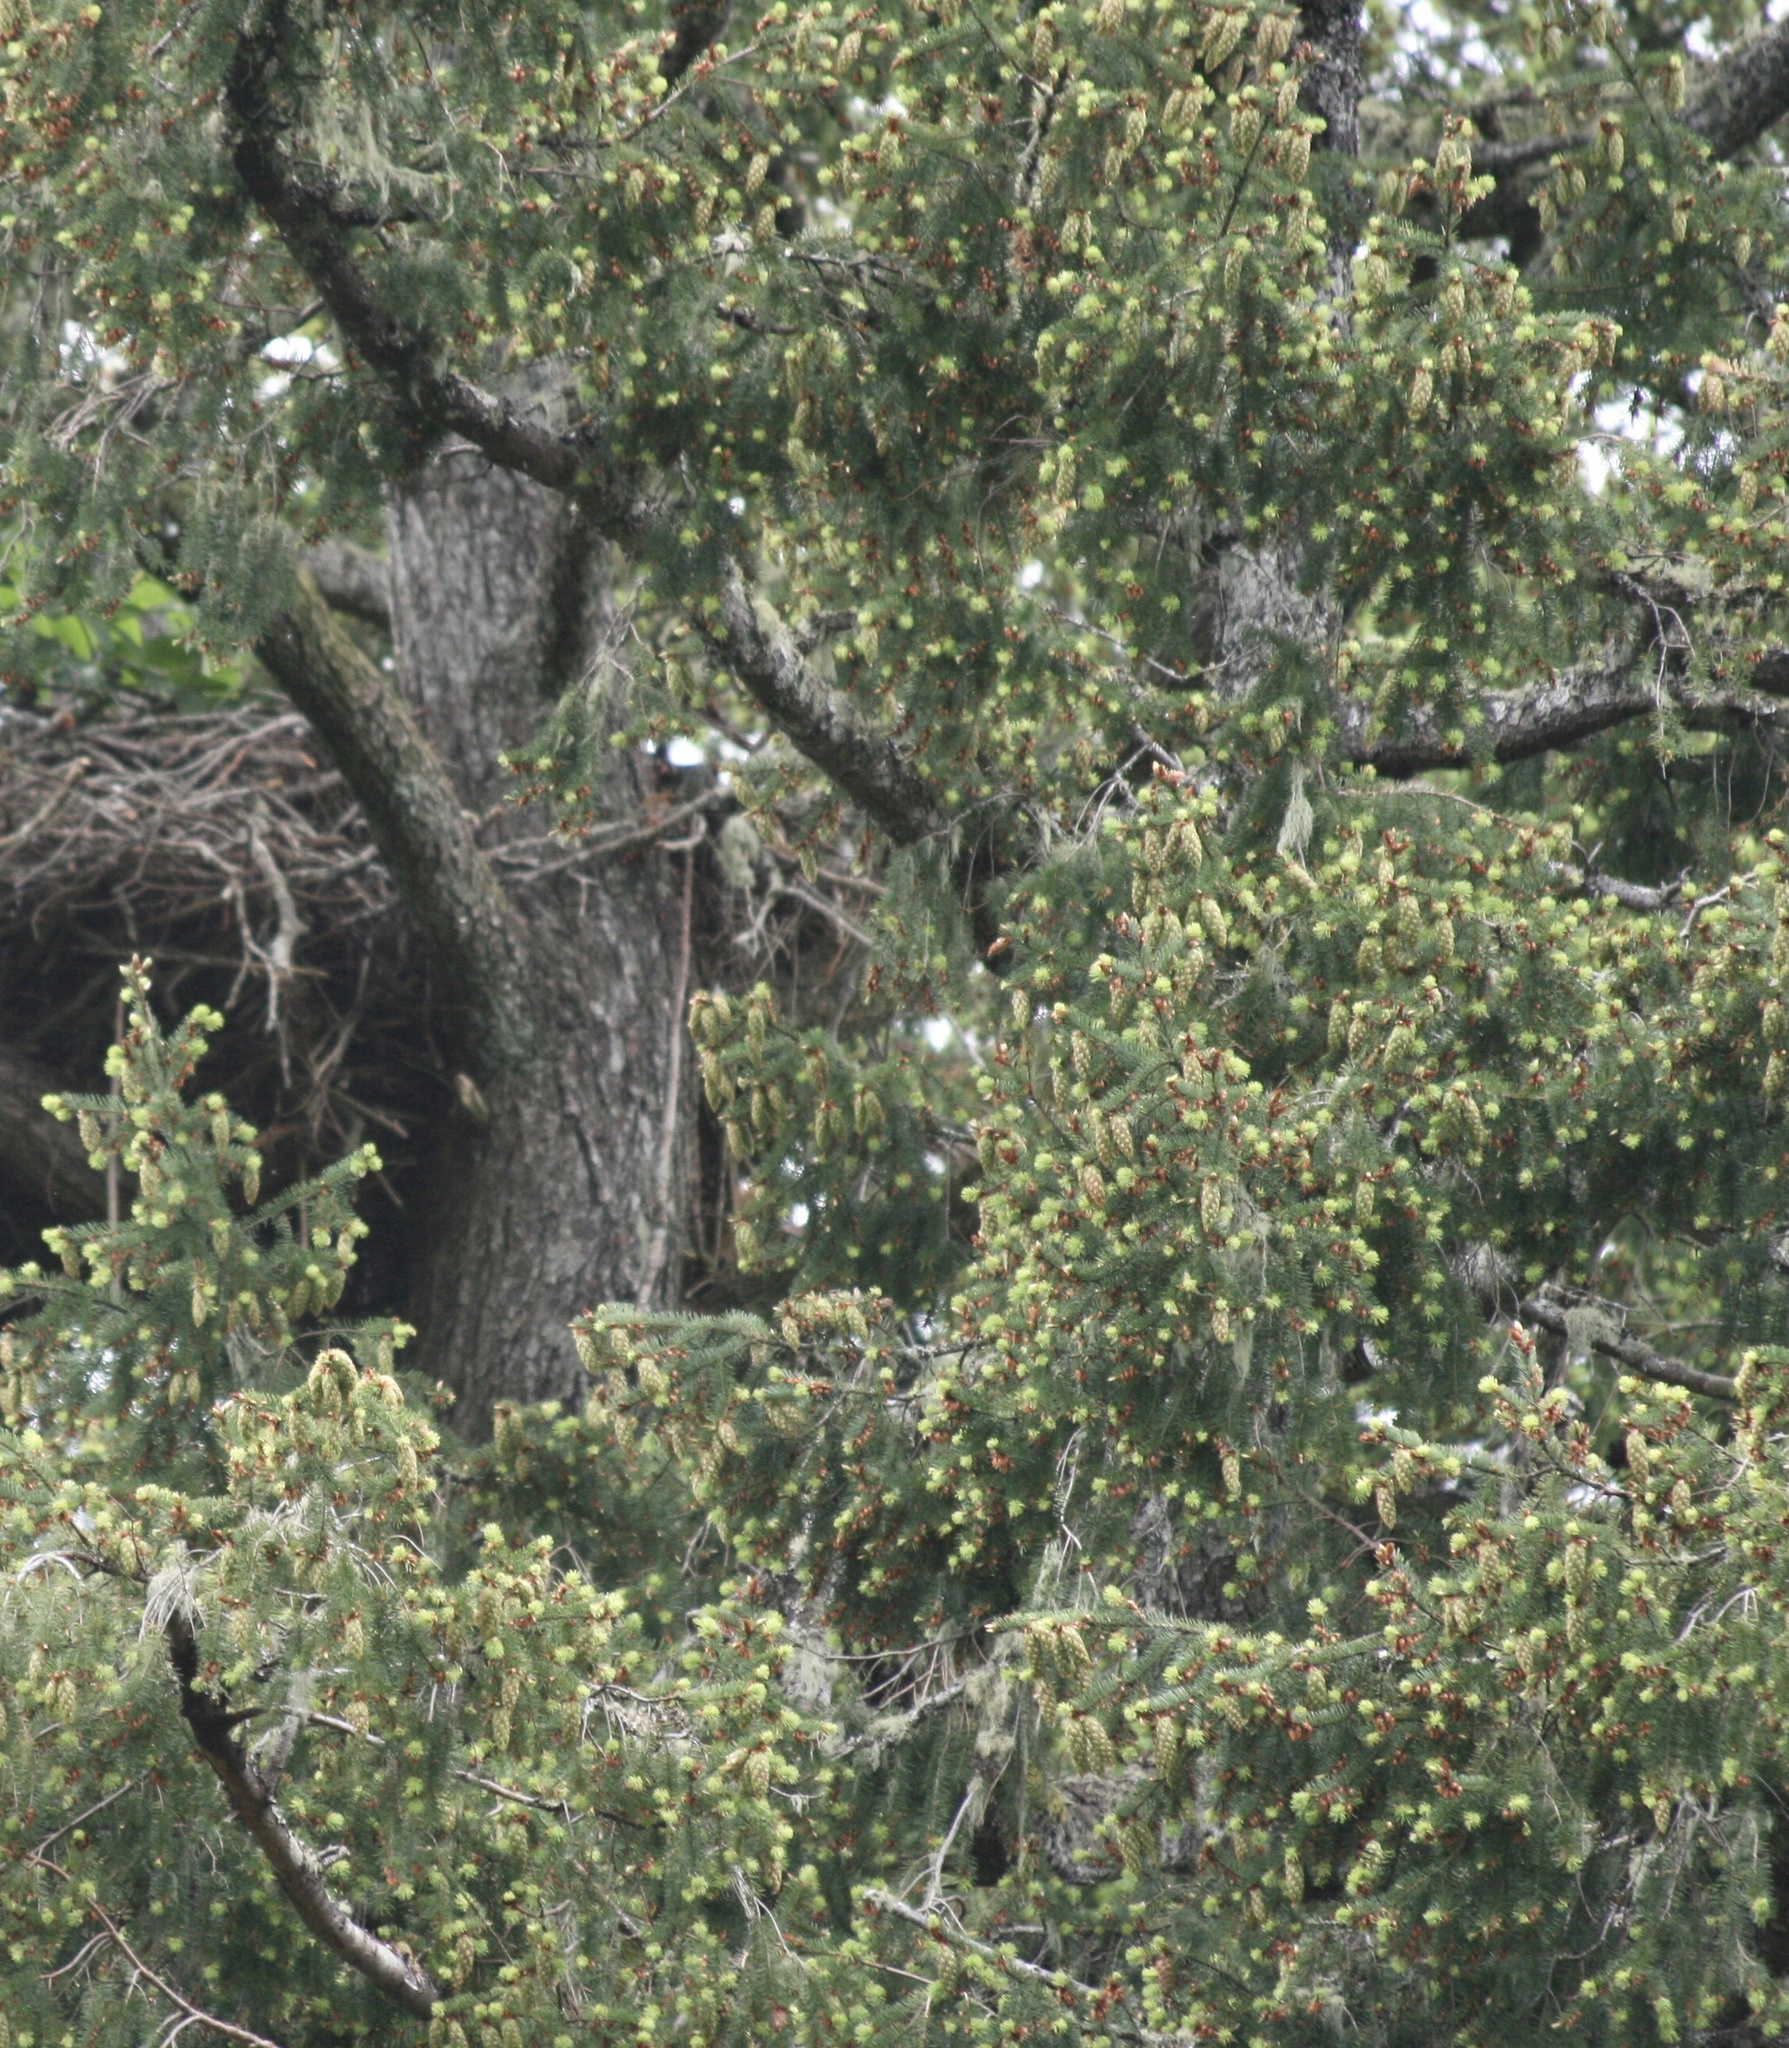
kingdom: Plantae
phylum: Tracheophyta
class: Pinopsida
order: Pinales
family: Pinaceae
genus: Pseudotsuga
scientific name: Pseudotsuga menziesii
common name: Douglas fir
